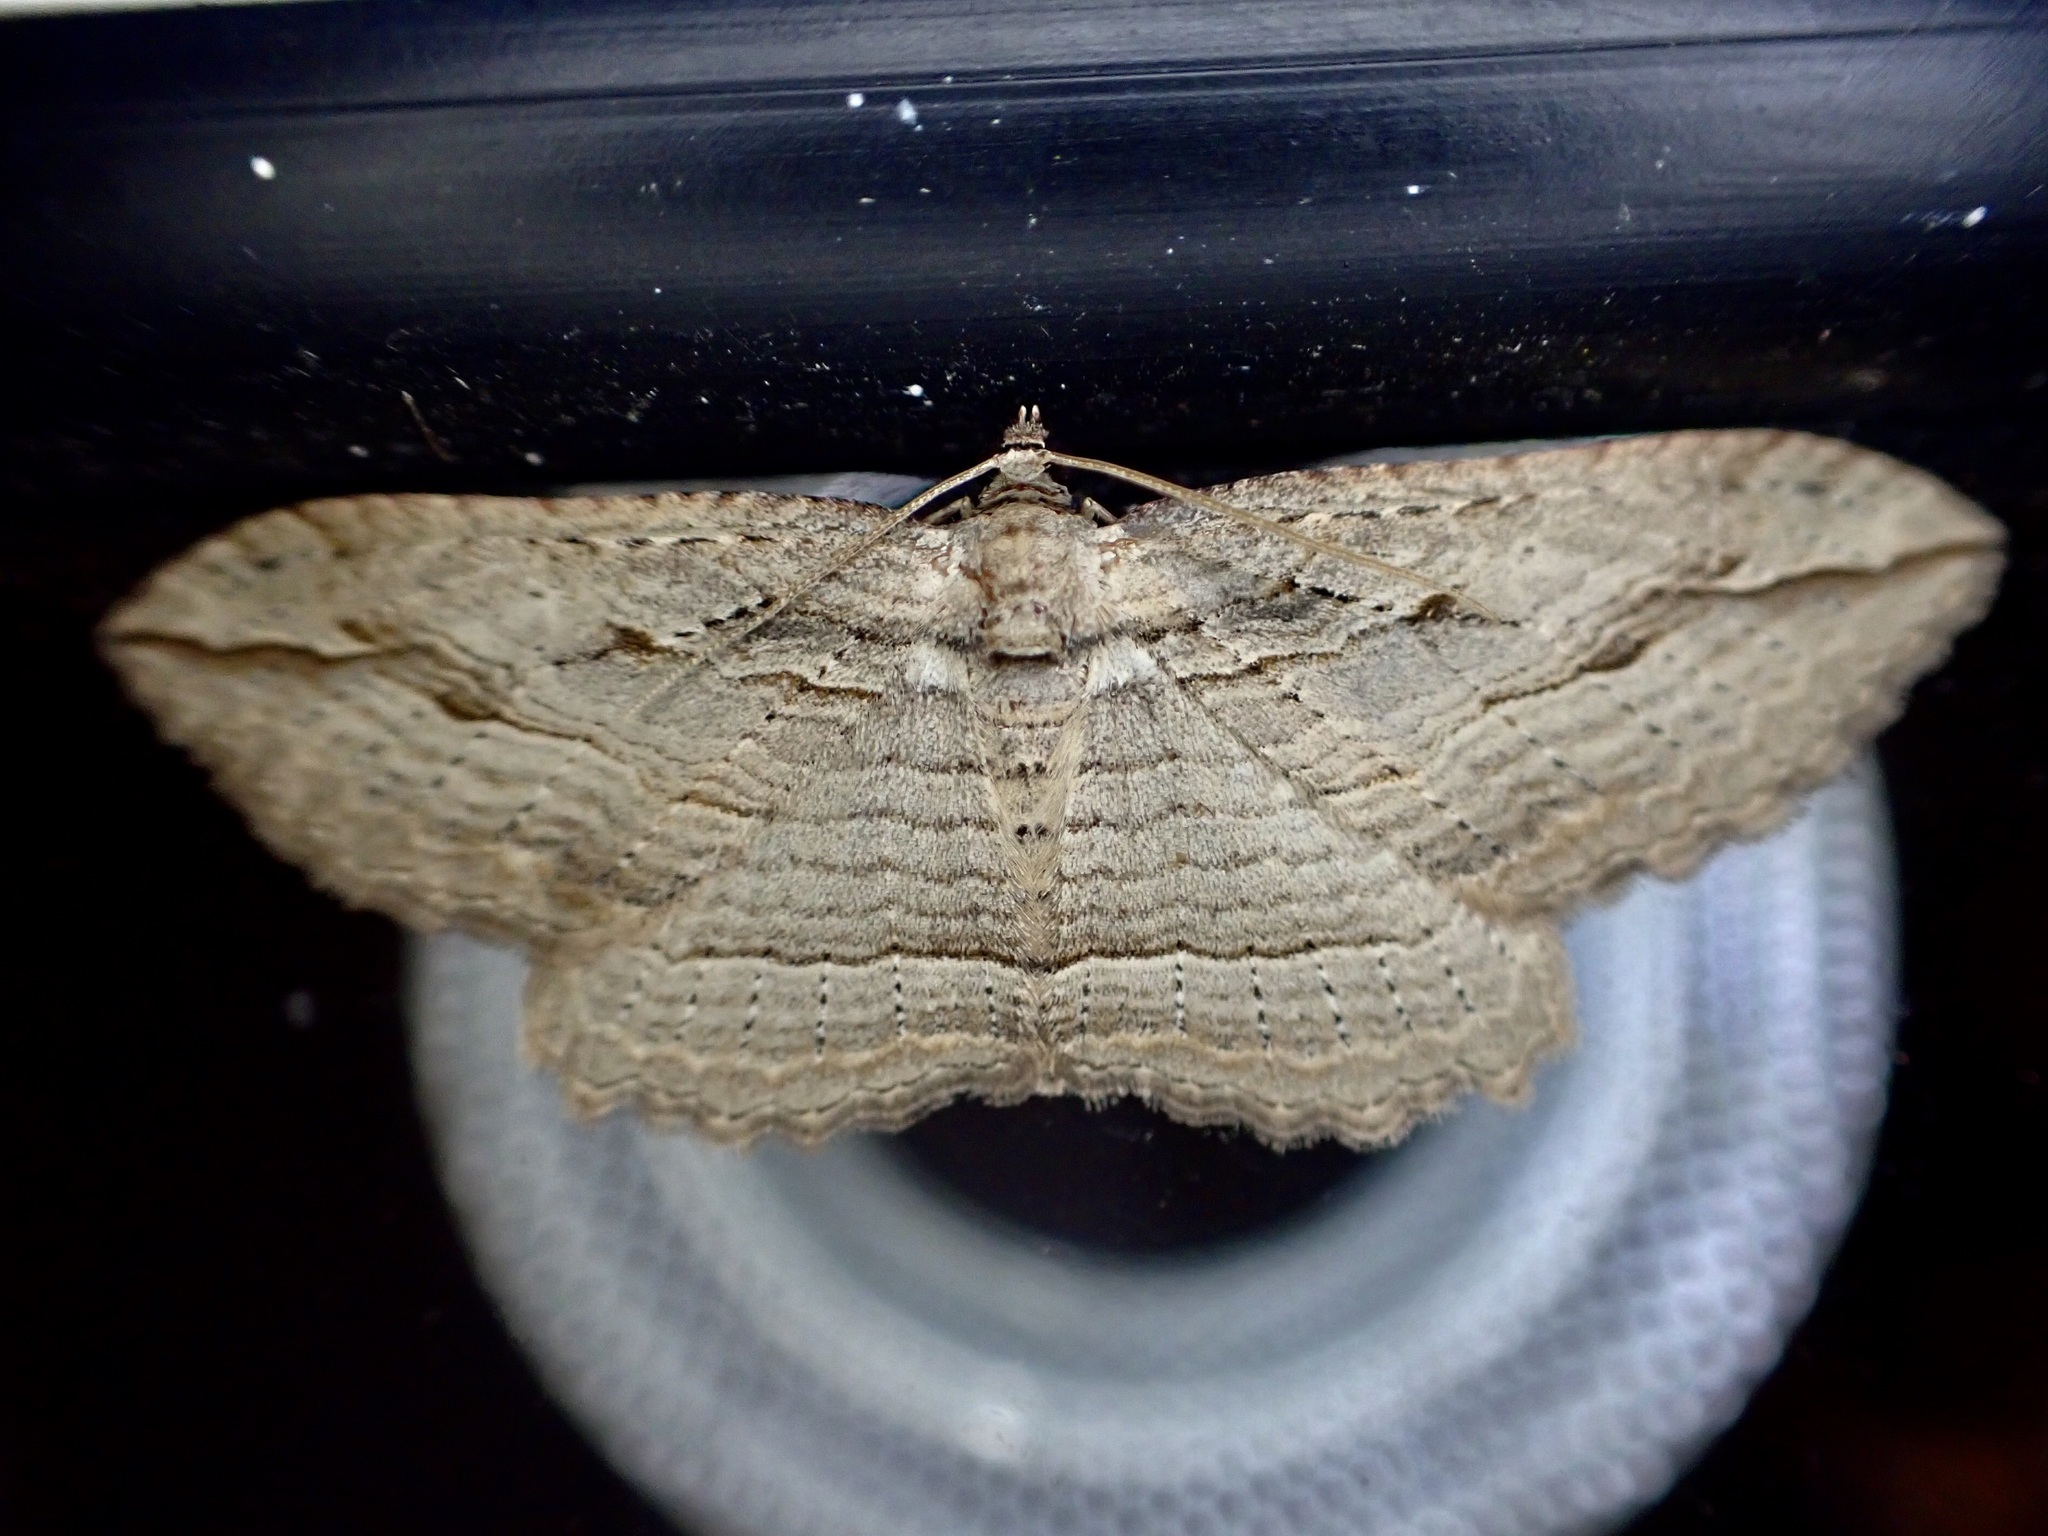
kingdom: Animalia
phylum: Arthropoda
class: Insecta
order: Lepidoptera
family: Geometridae
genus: Austrocidaria
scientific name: Austrocidaria gobiata
